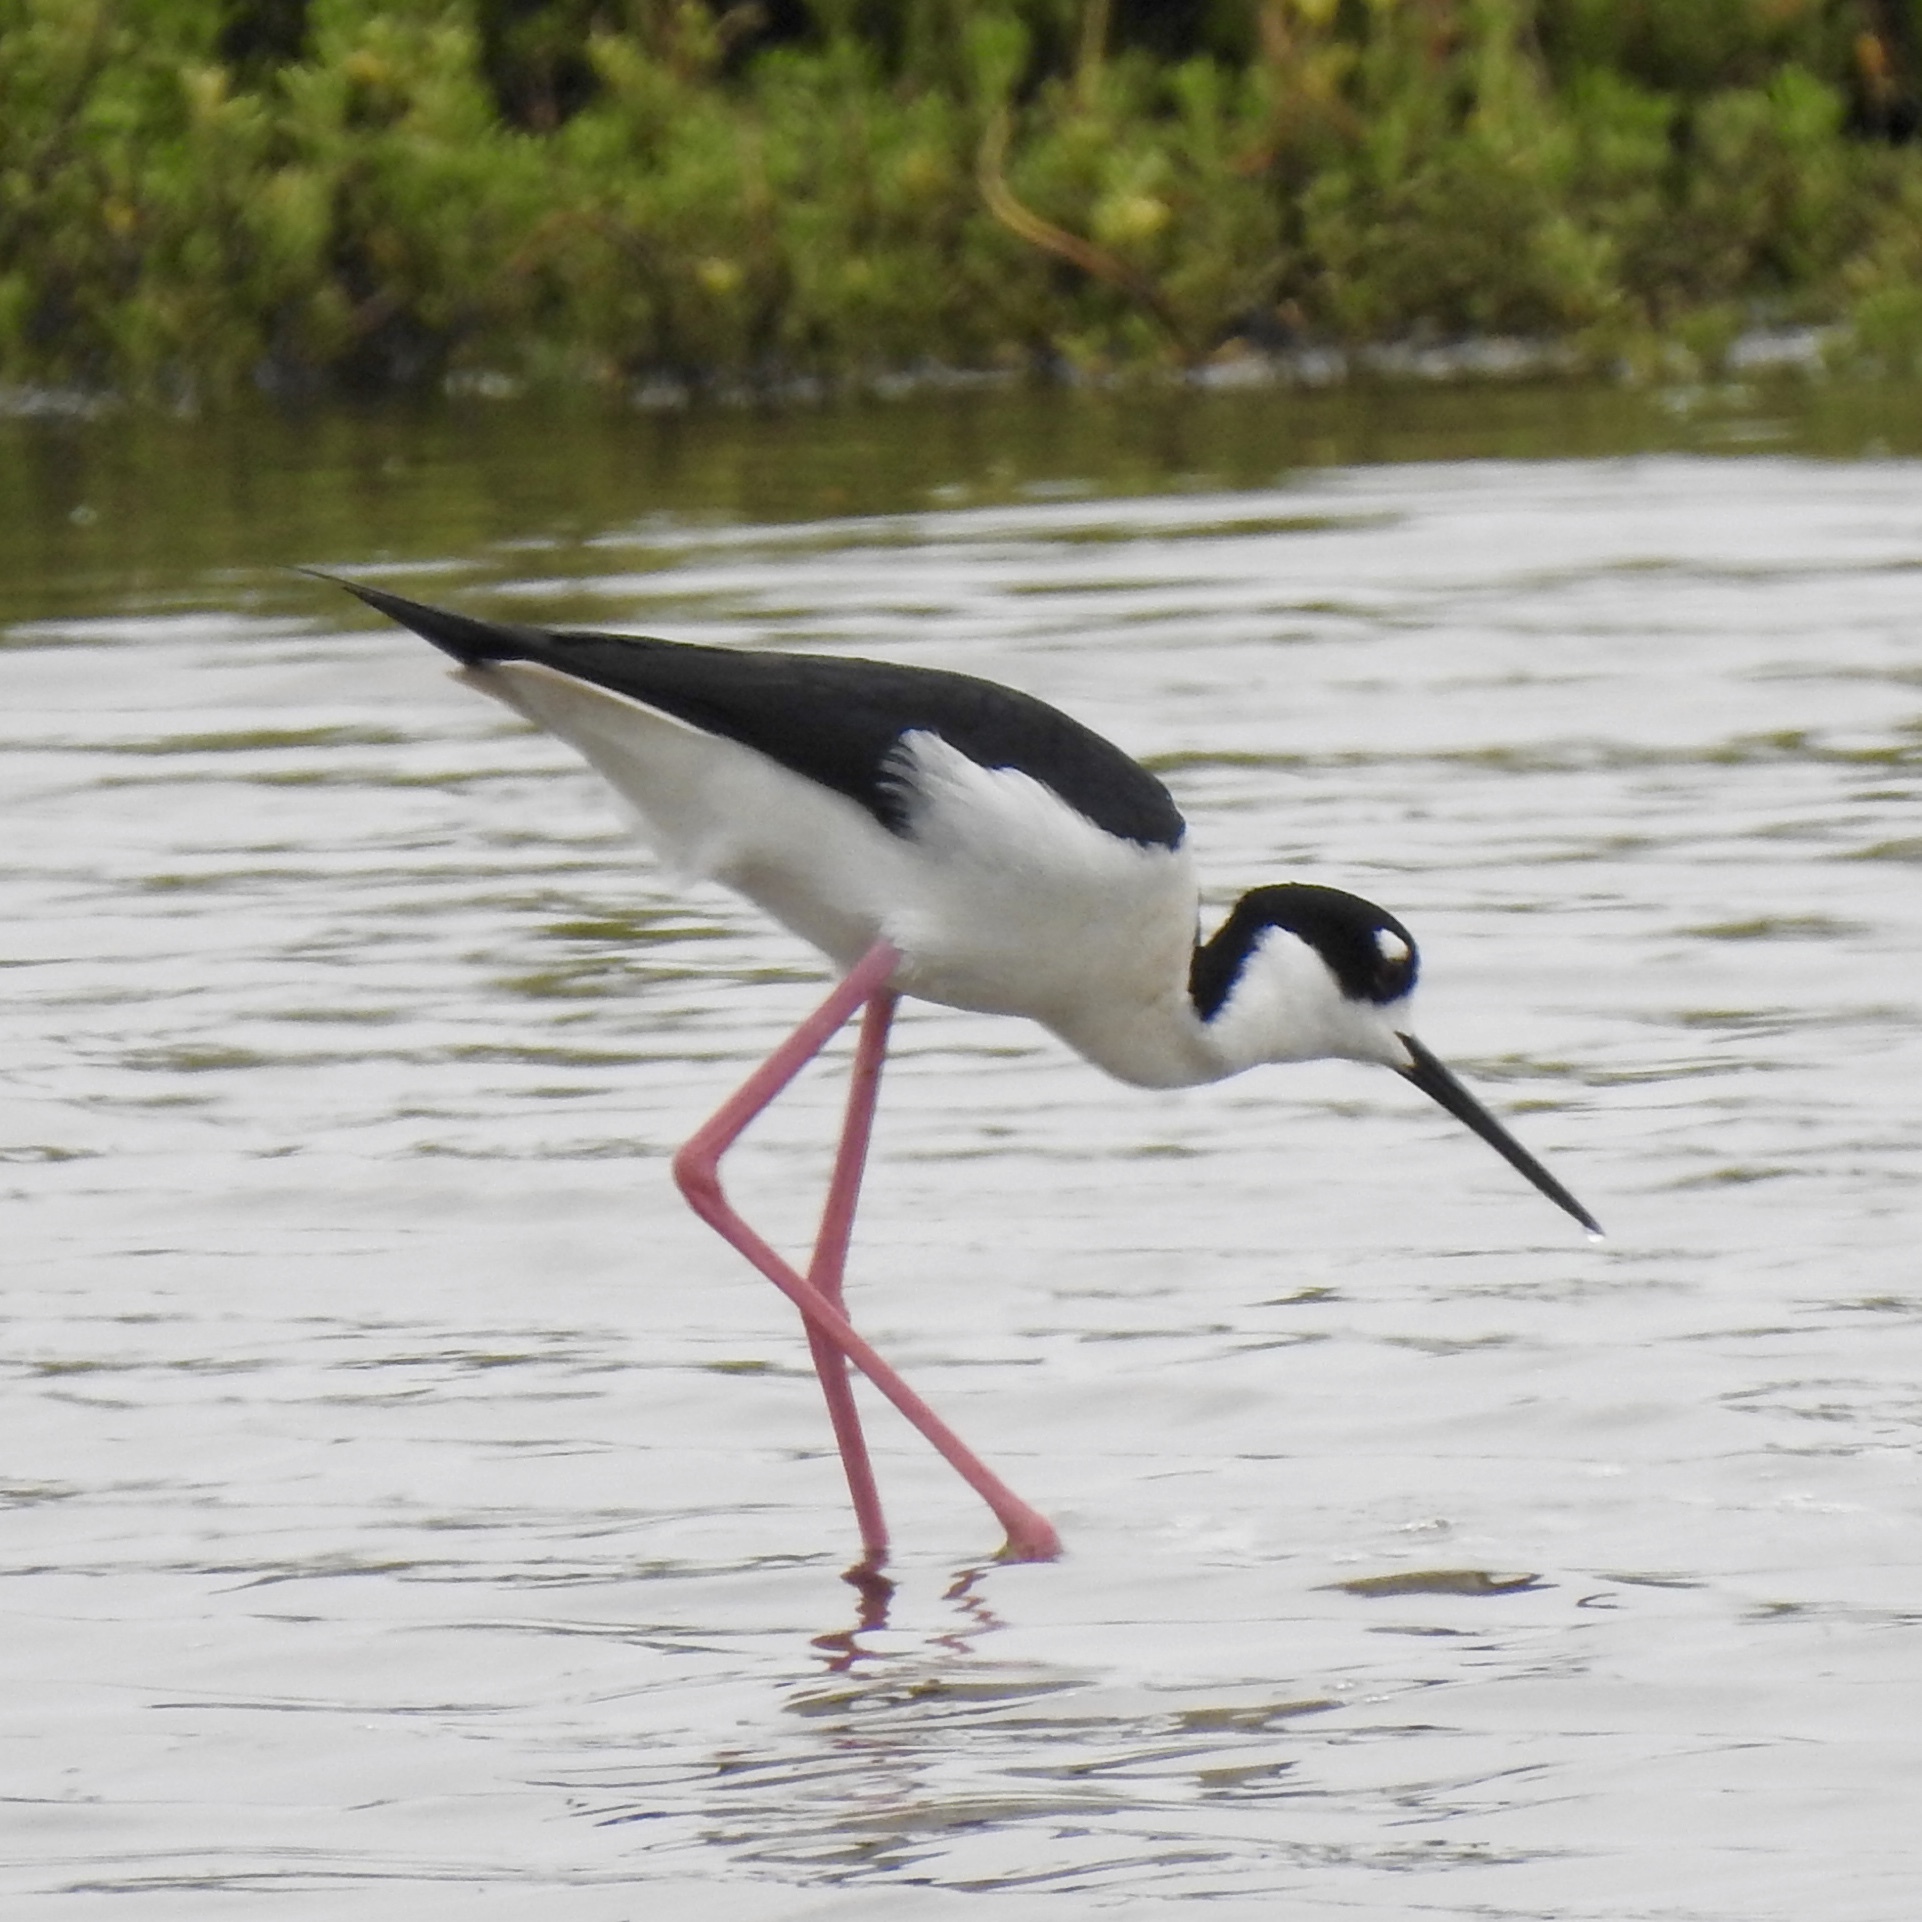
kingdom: Animalia
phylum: Chordata
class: Aves
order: Charadriiformes
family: Recurvirostridae
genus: Himantopus
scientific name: Himantopus mexicanus
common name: Black-necked stilt
